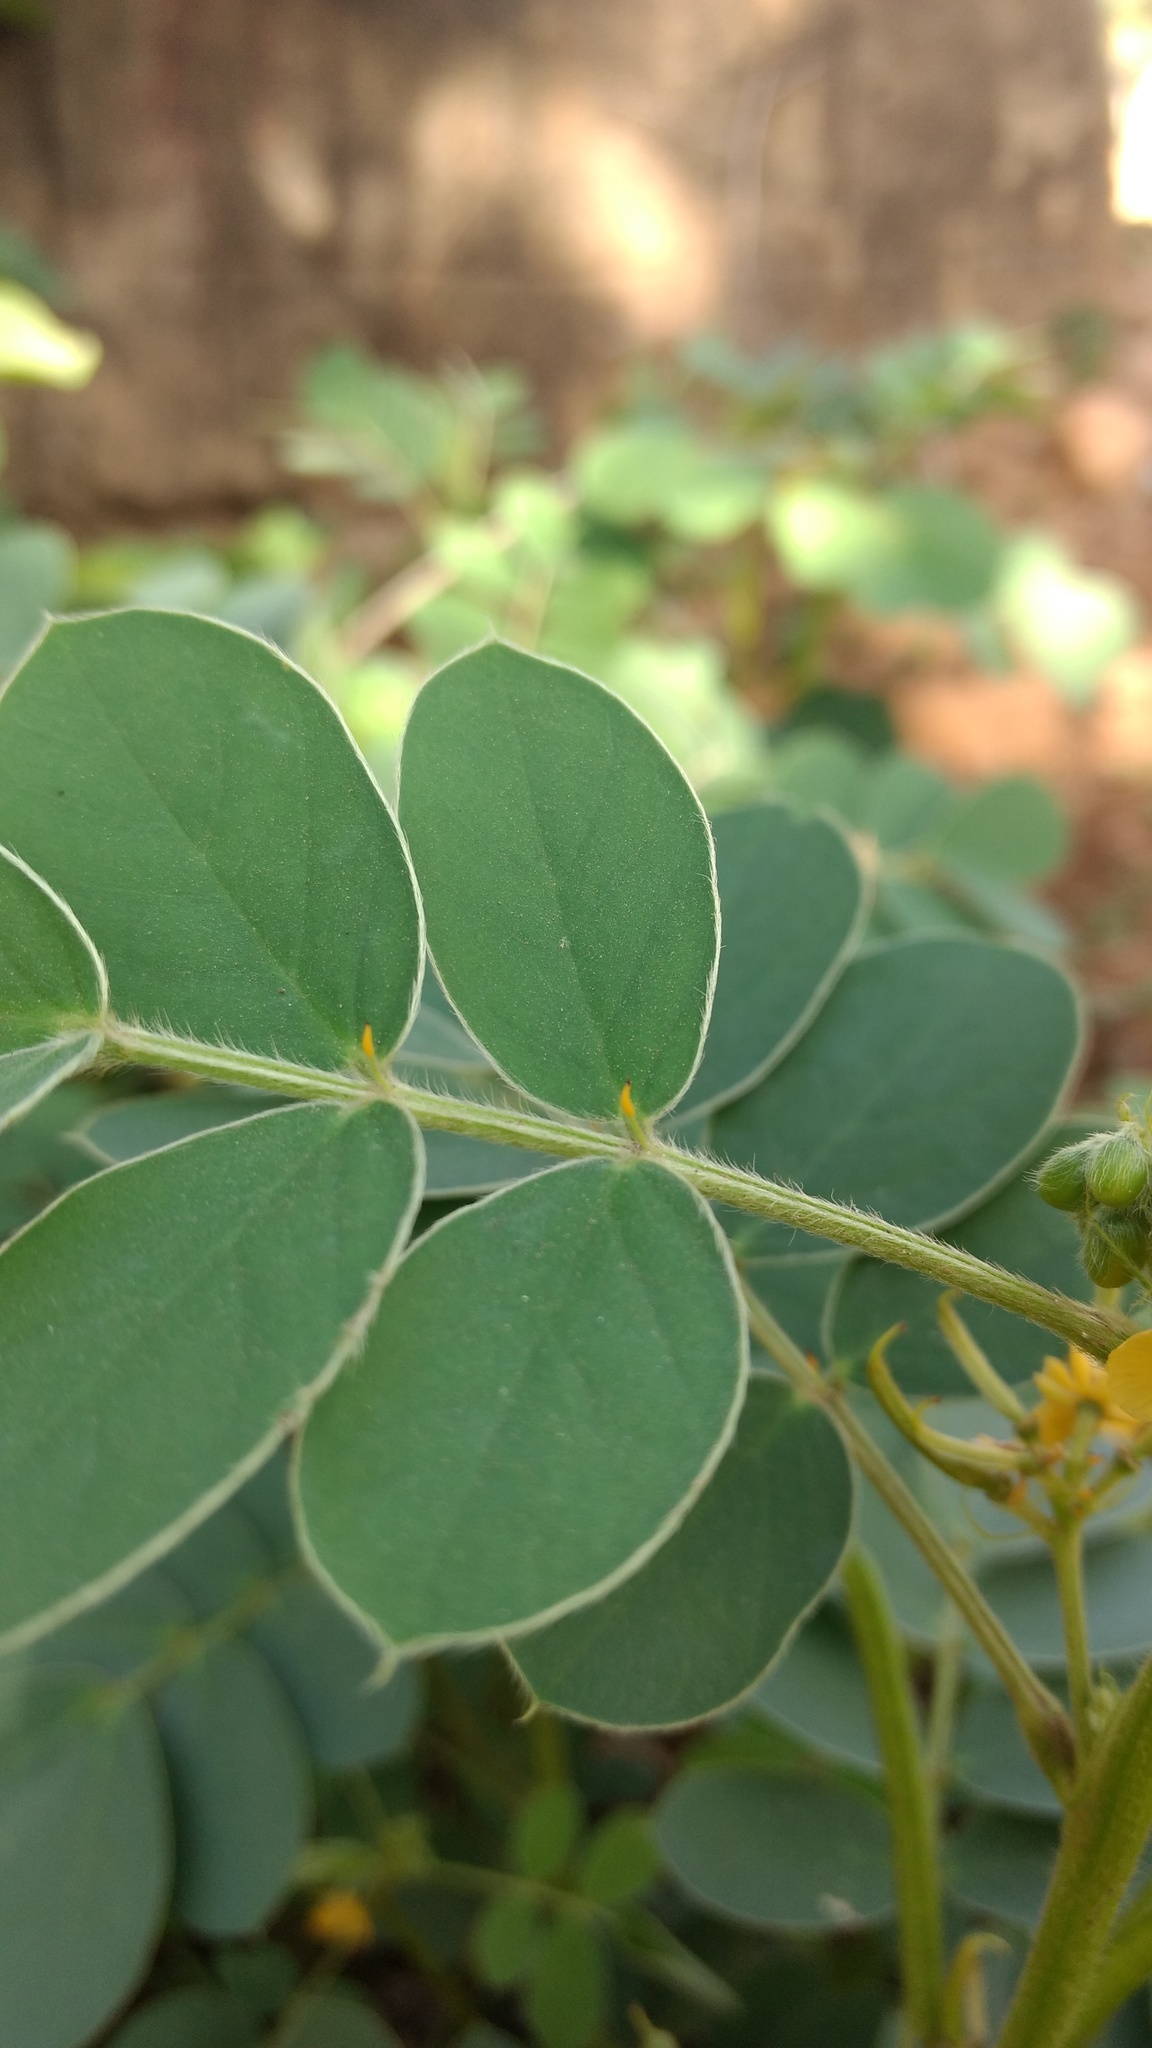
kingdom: Plantae
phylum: Tracheophyta
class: Magnoliopsida
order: Fabales
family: Fabaceae
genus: Senna
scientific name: Senna uniflora
